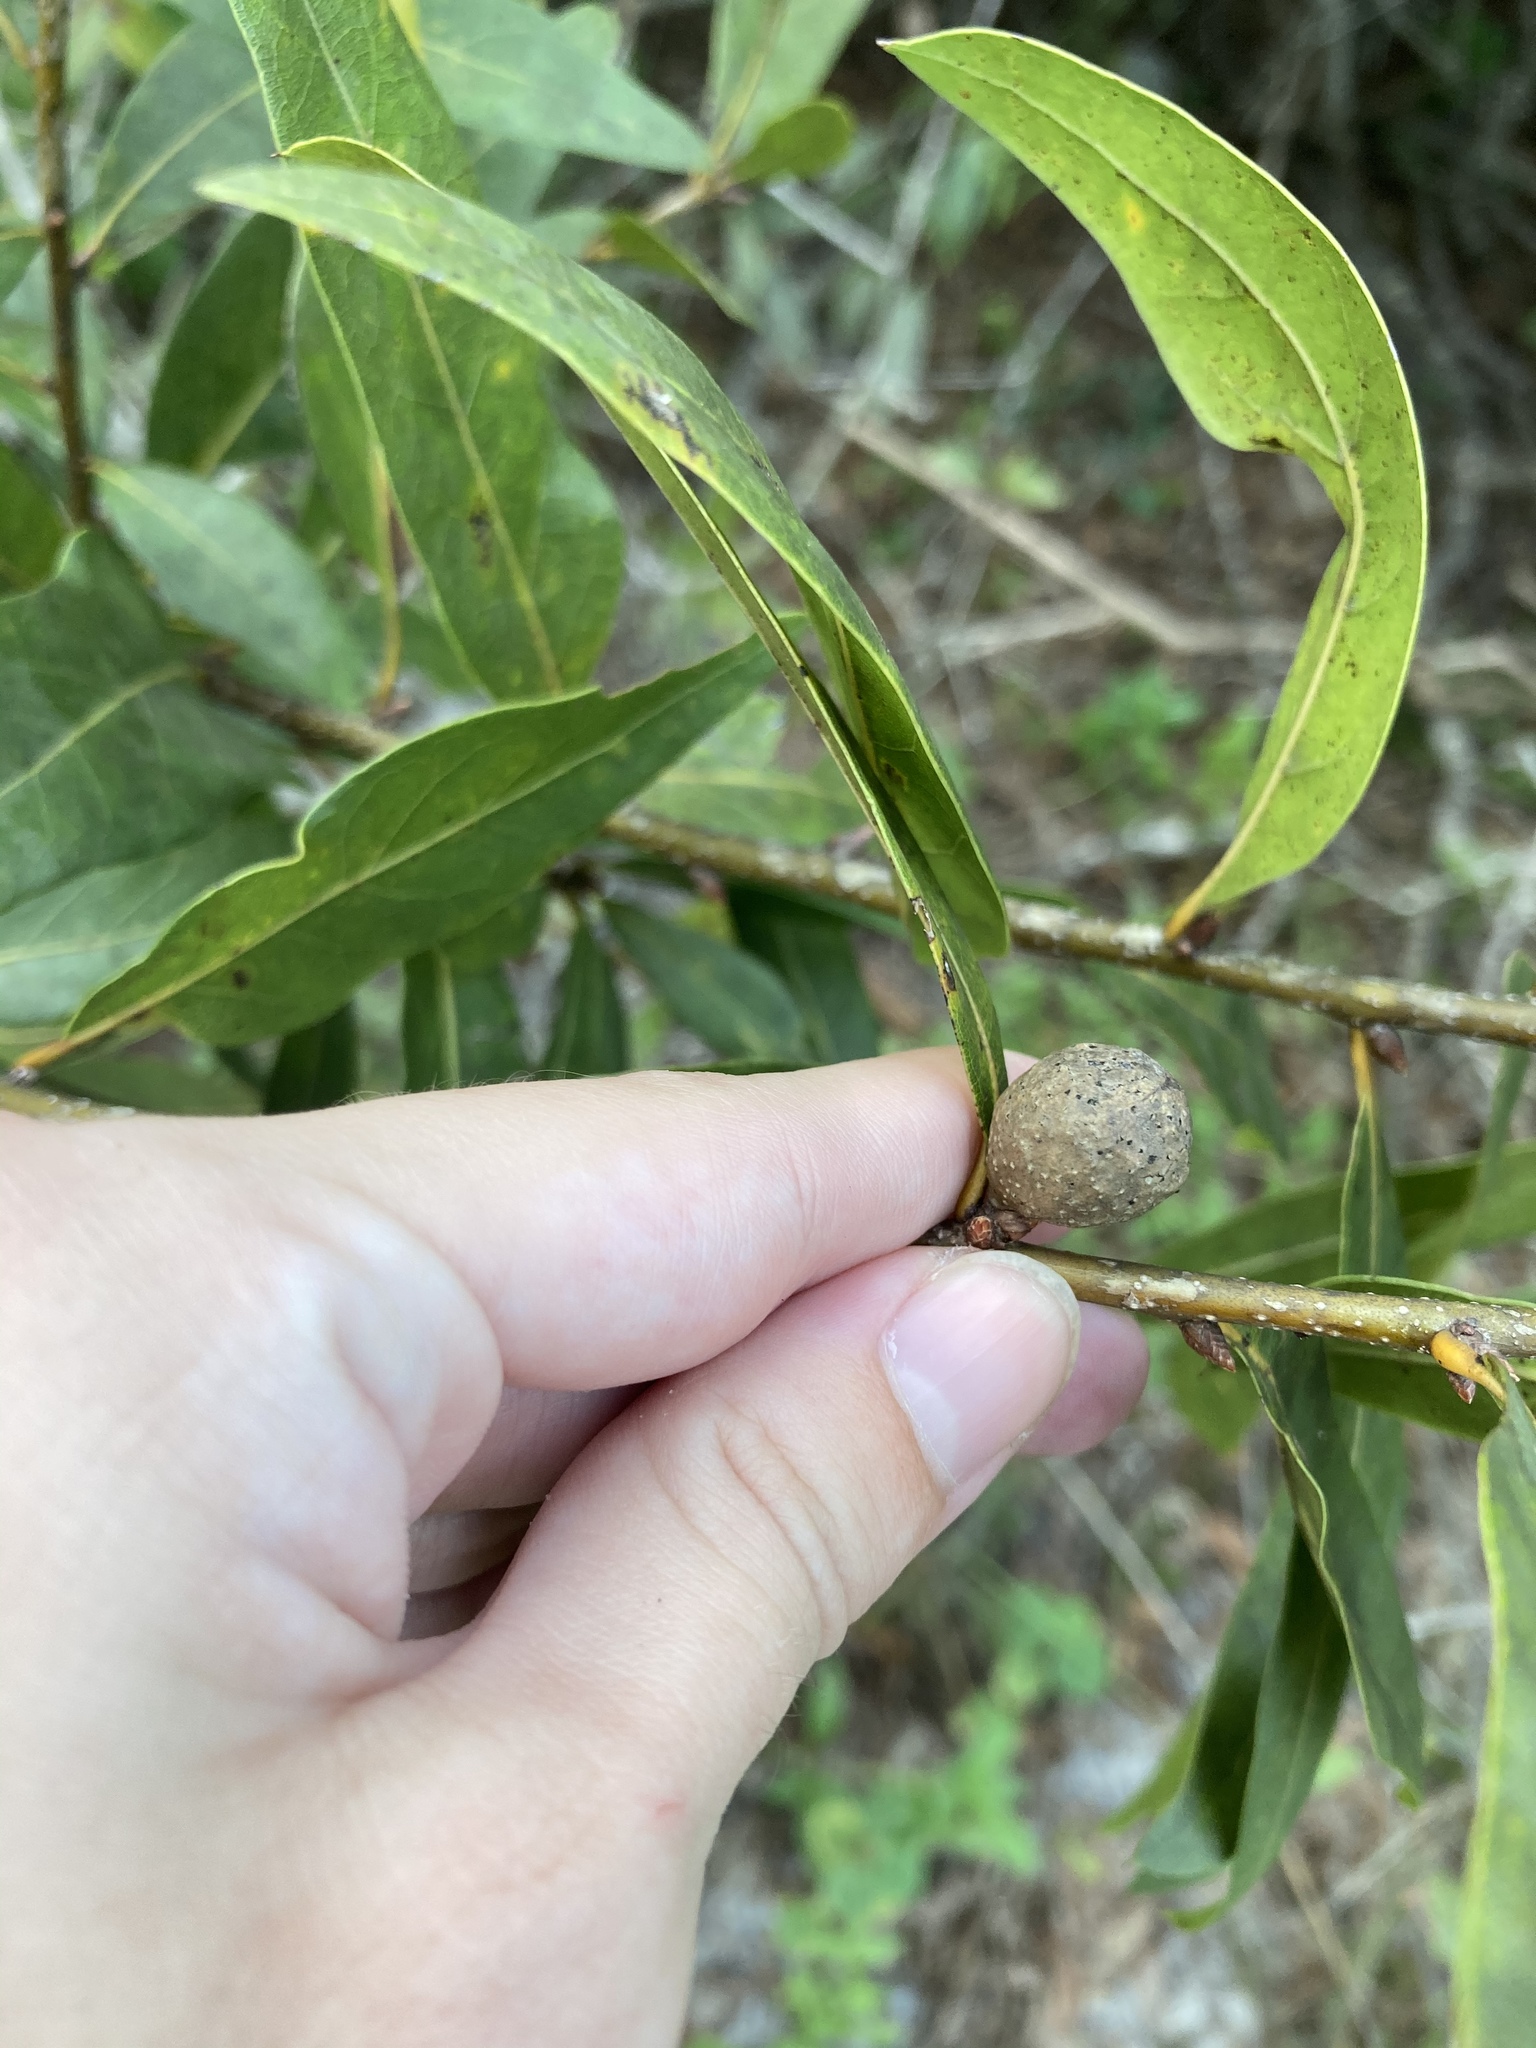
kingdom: Plantae
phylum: Tracheophyta
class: Magnoliopsida
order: Fagales
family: Fagaceae
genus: Quercus
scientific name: Quercus laurifolia
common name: Swamp laurel oak
